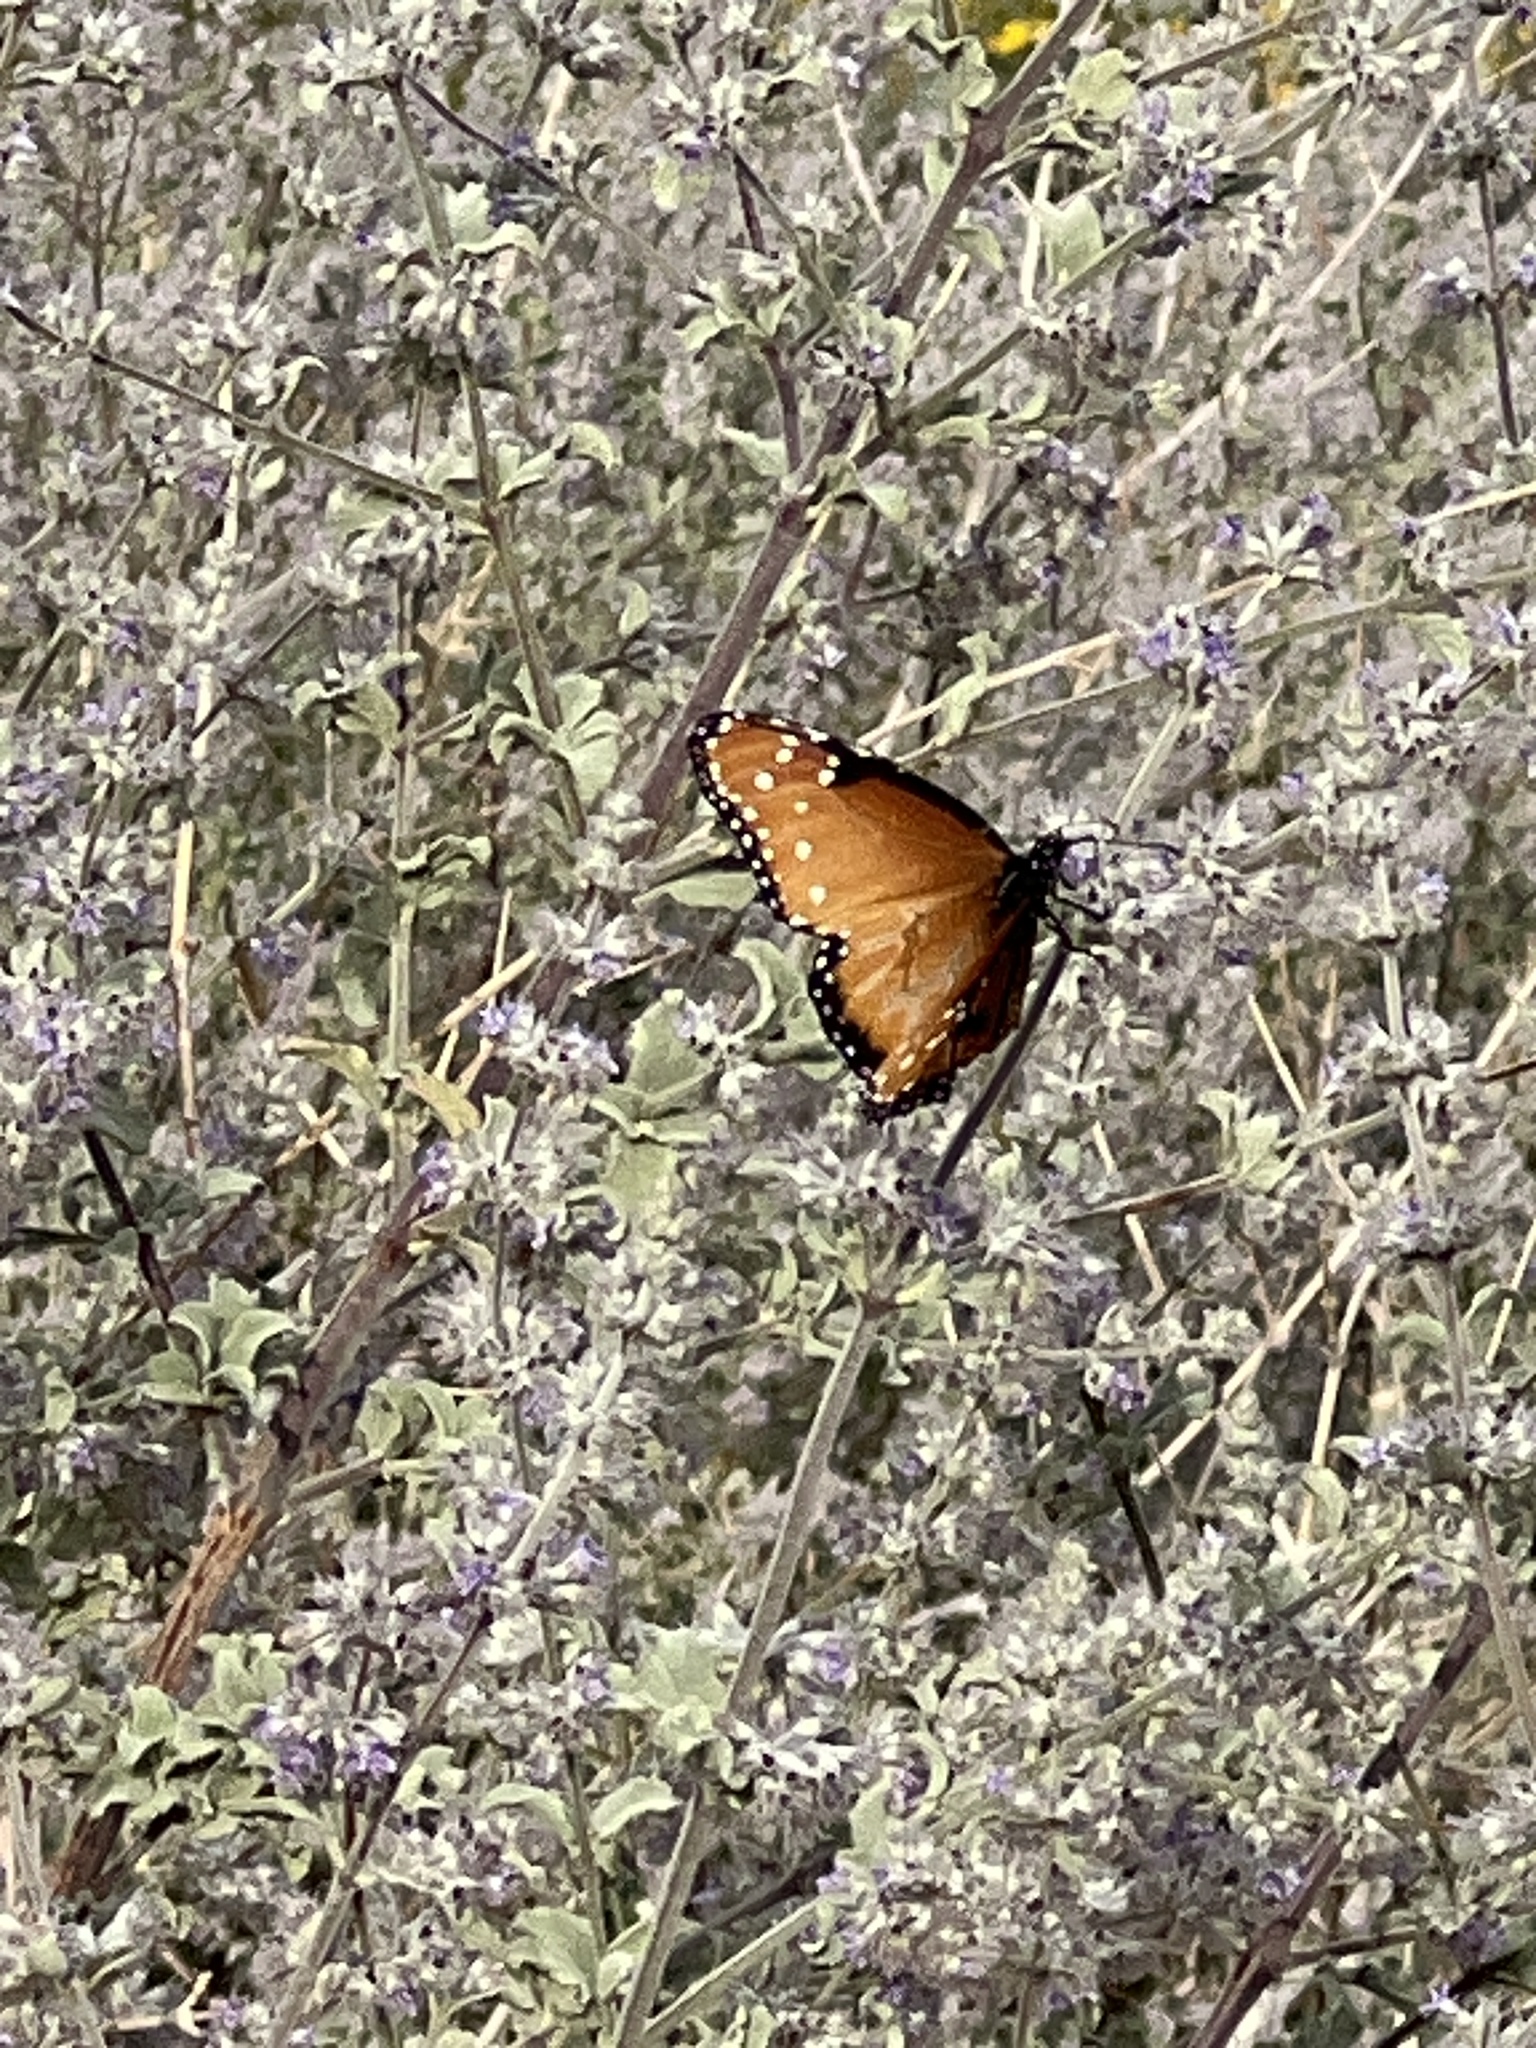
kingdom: Animalia
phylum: Arthropoda
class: Insecta
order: Lepidoptera
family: Nymphalidae
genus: Danaus
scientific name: Danaus gilippus
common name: Queen
